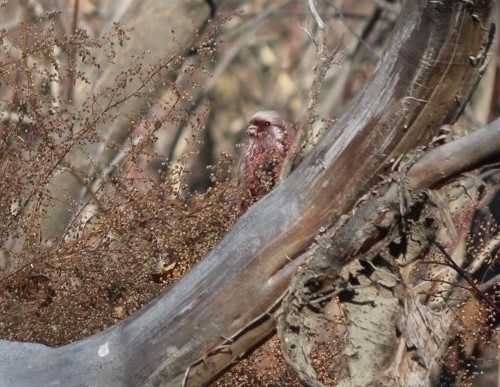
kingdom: Animalia
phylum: Chordata
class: Aves
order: Passeriformes
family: Fringillidae
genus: Carpodacus
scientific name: Carpodacus sibiricus
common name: Long-tailed rosefinch
